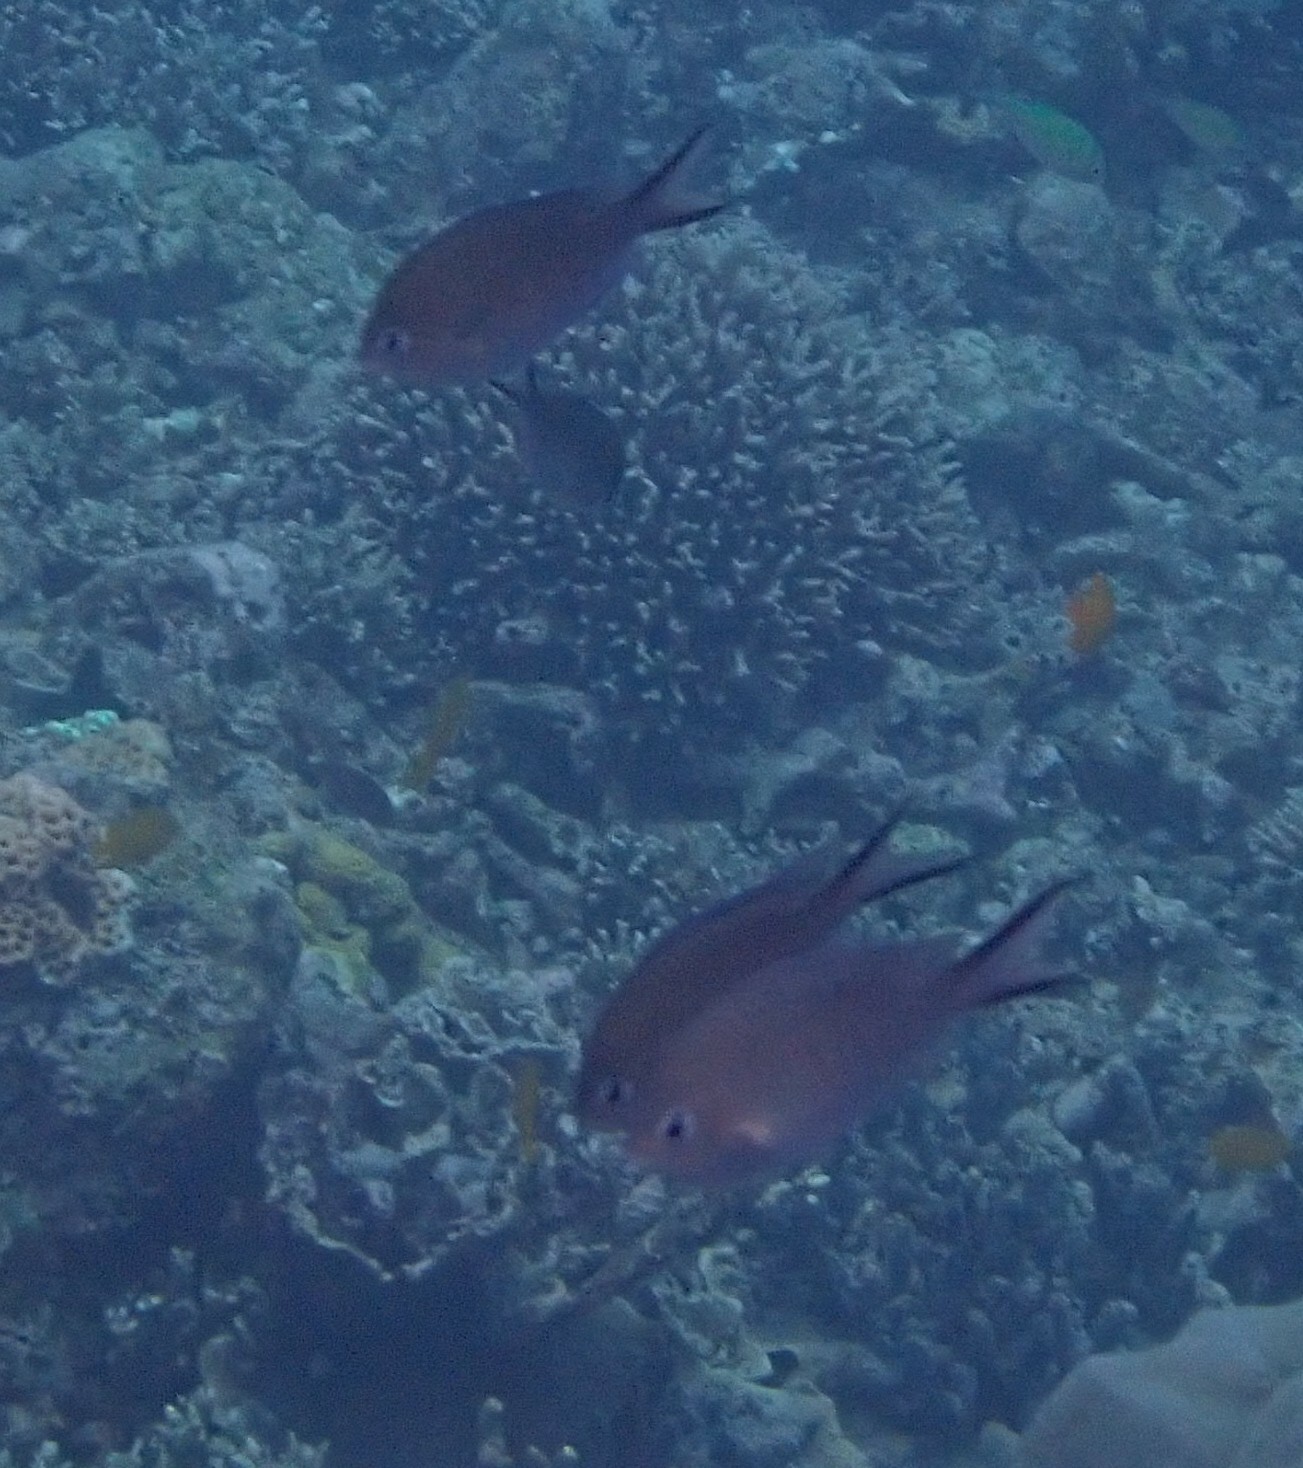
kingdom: Animalia
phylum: Chordata
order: Perciformes
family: Pomacentridae
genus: Chromis
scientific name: Chromis ternatensis
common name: Ternate chromis
